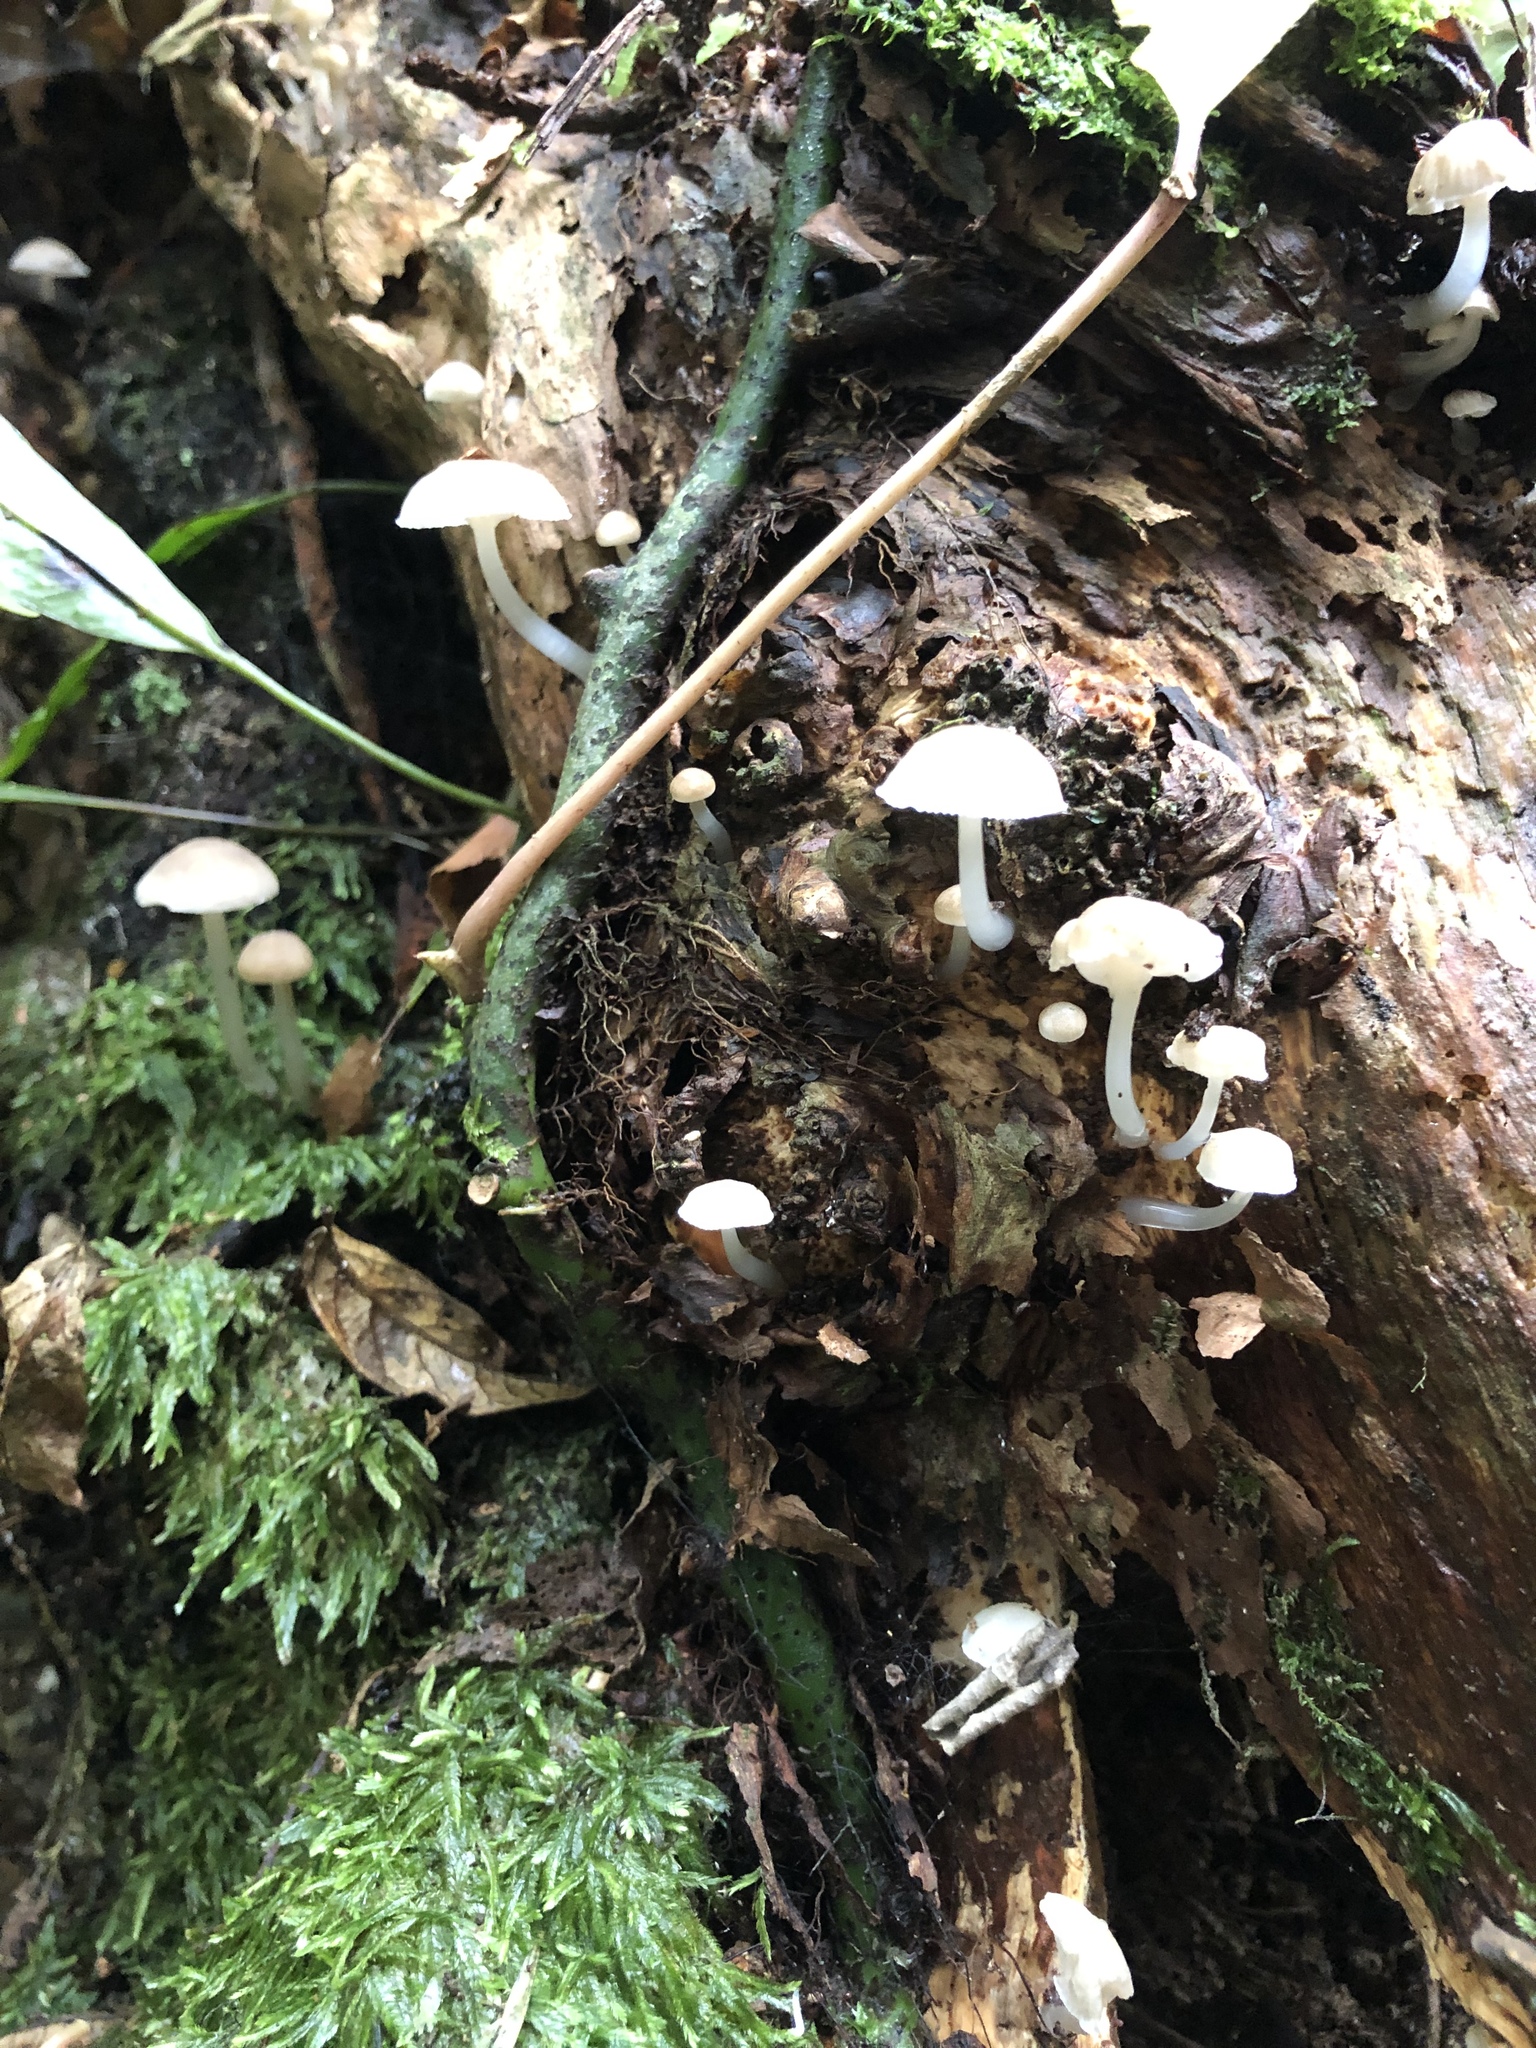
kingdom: Fungi
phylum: Basidiomycota
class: Agaricomycetes
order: Agaricales
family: Mycenaceae
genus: Roridomyces
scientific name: Roridomyces austrororidus
